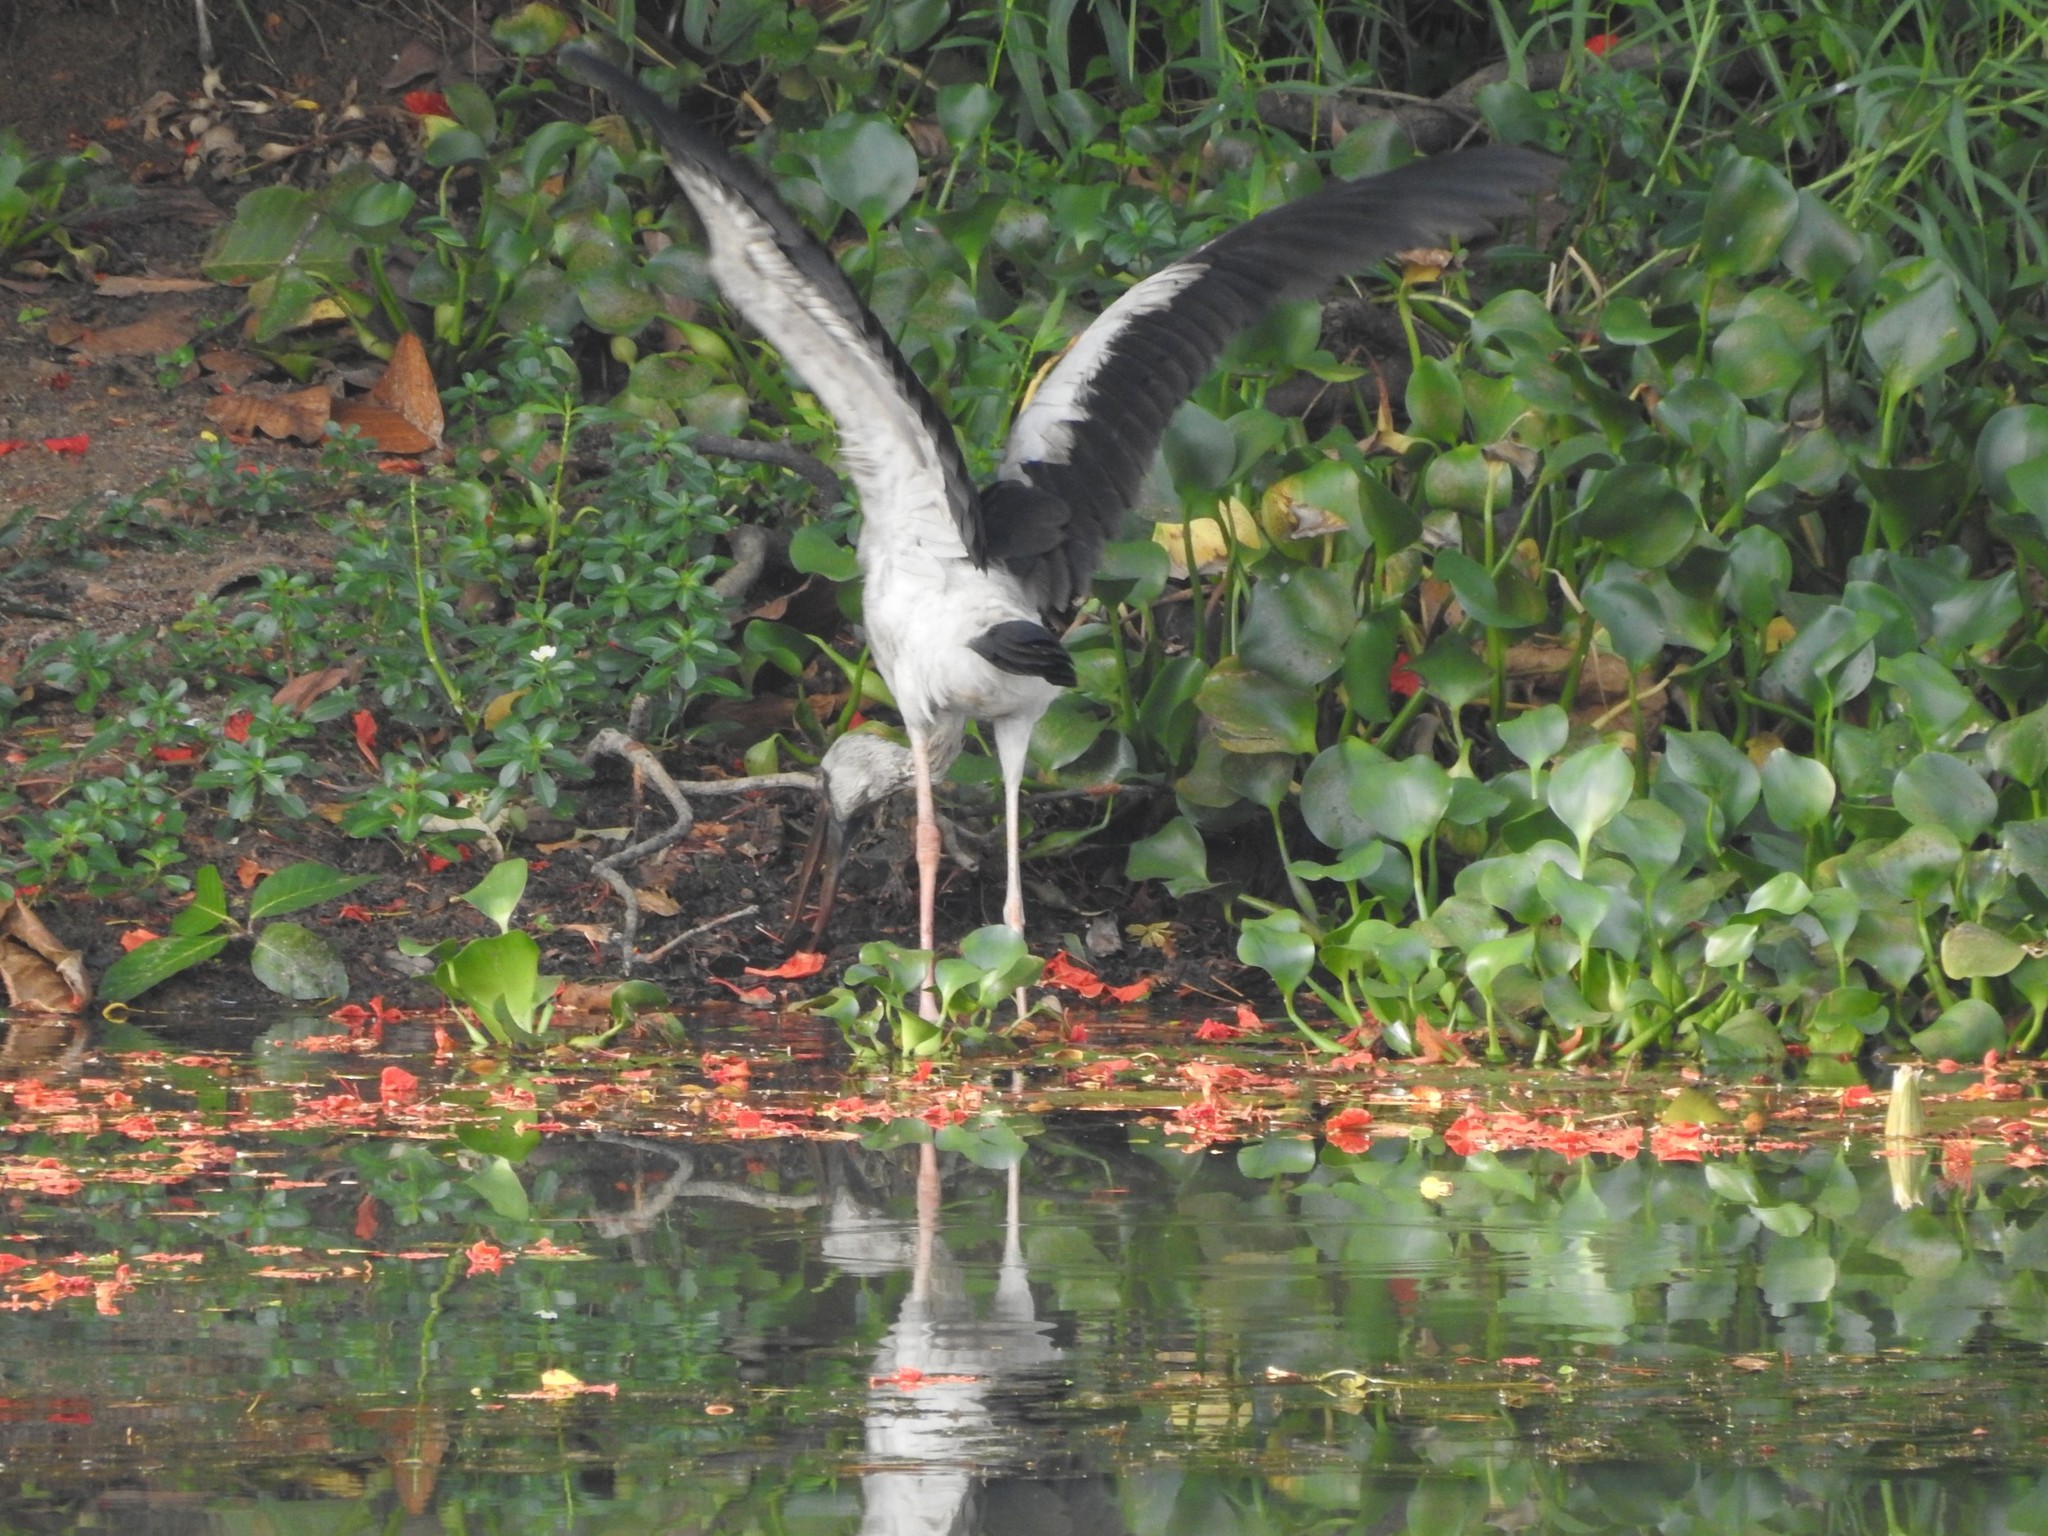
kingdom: Animalia
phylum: Chordata
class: Aves
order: Ciconiiformes
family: Ciconiidae
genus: Anastomus
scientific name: Anastomus oscitans
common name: Asian openbill
